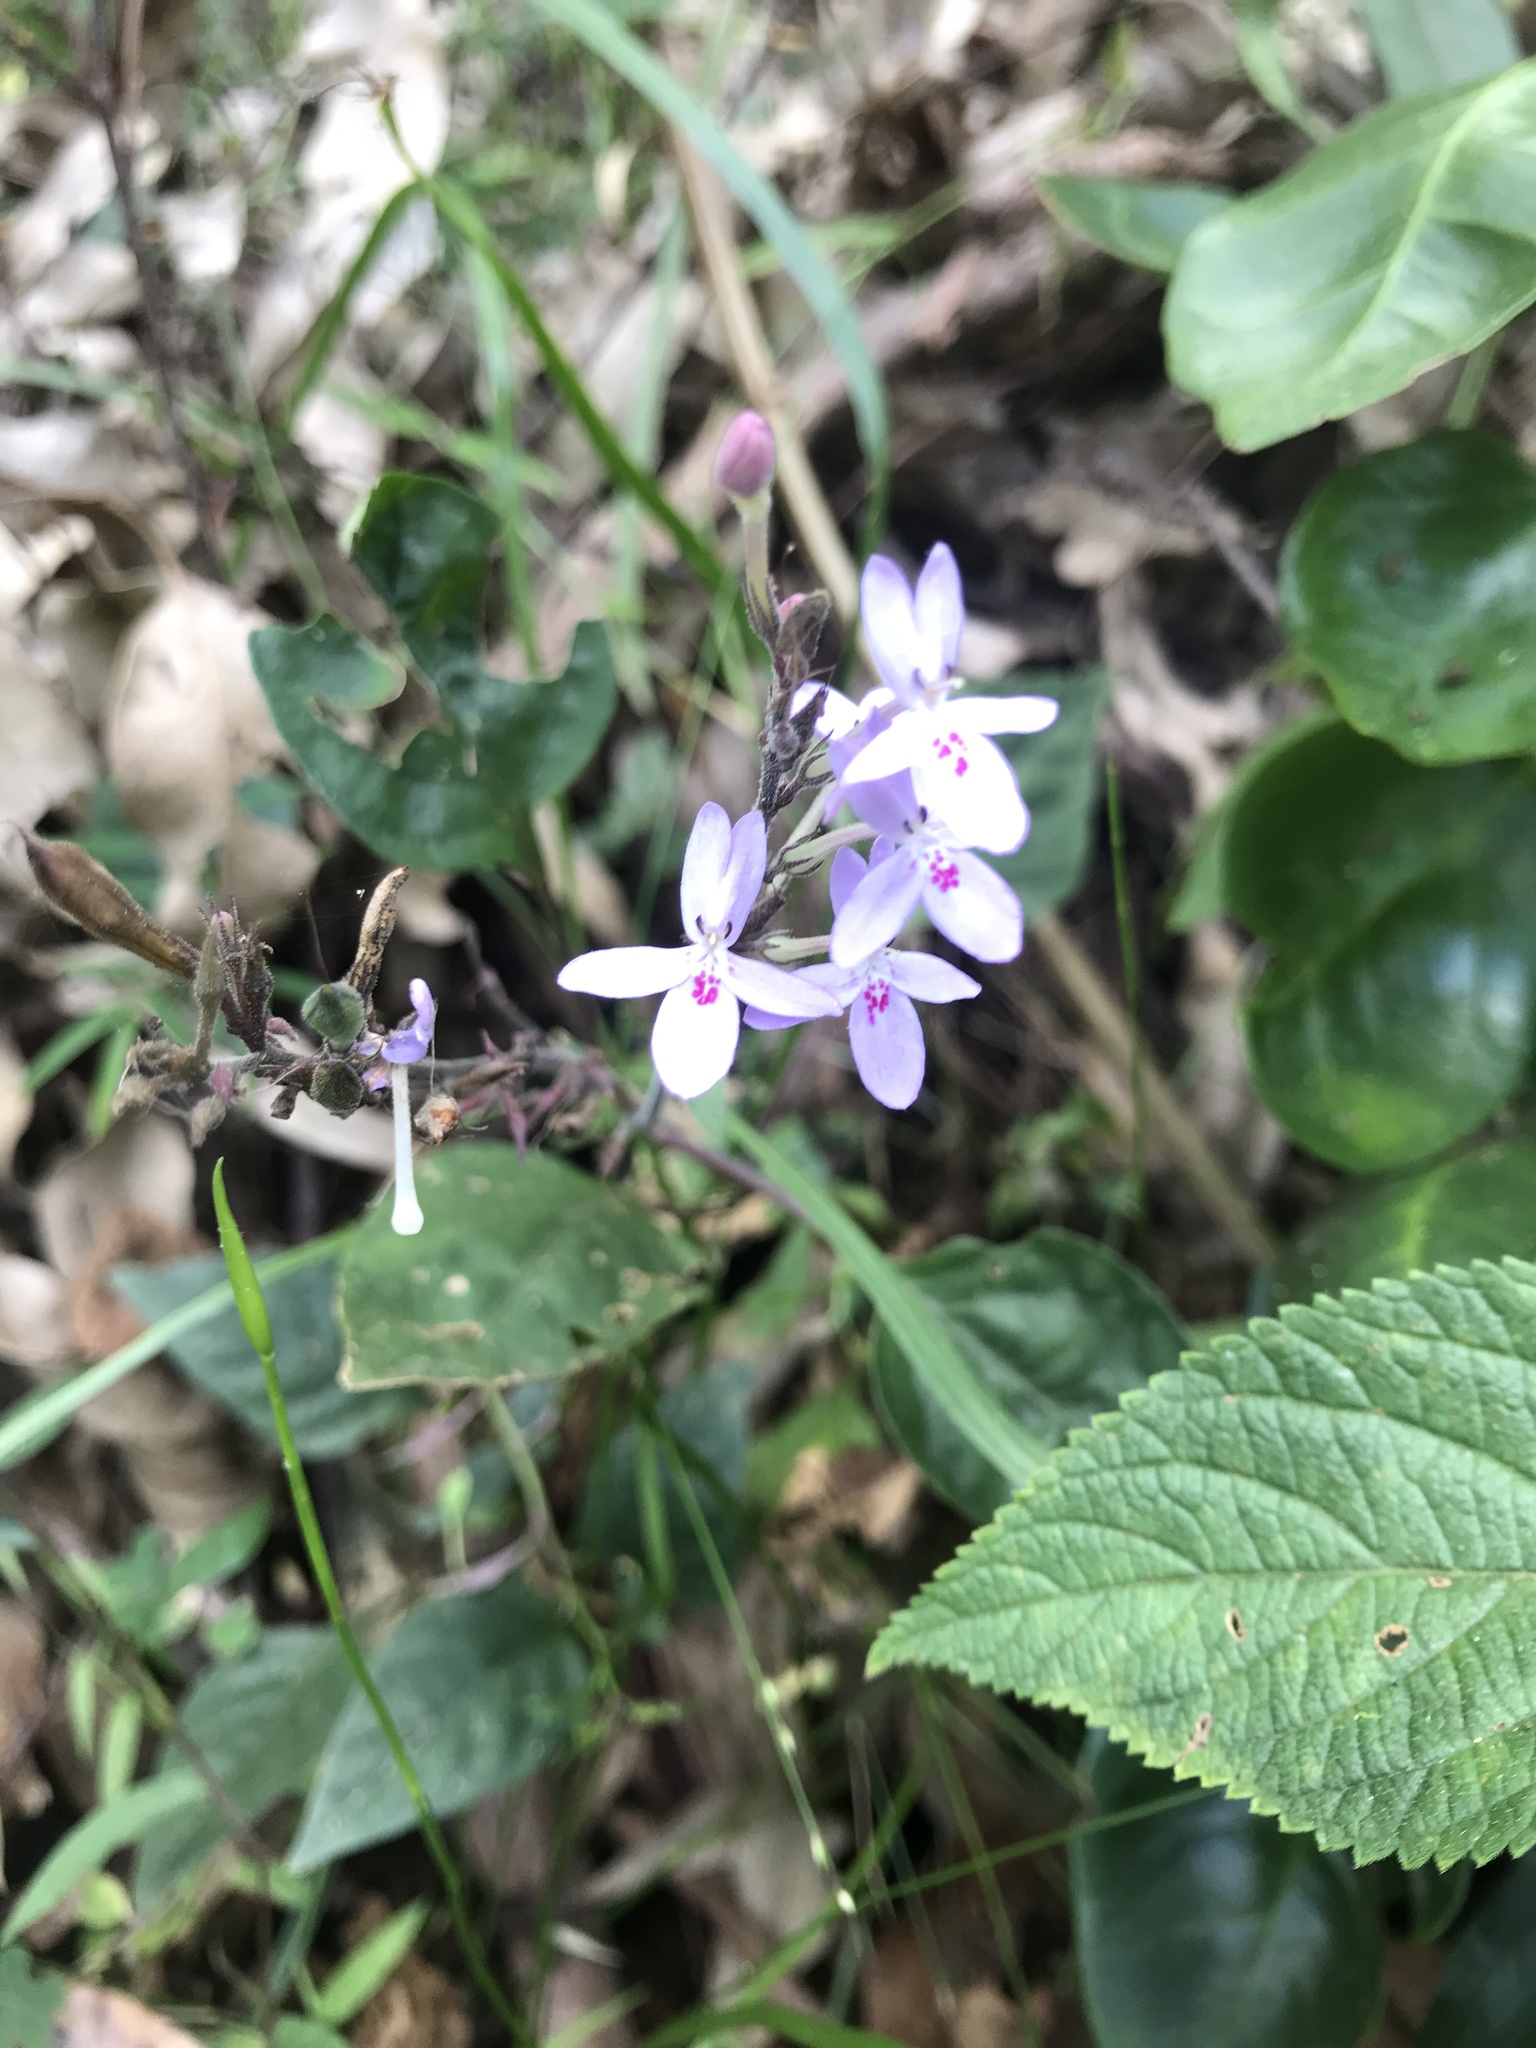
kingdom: Plantae
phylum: Tracheophyta
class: Magnoliopsida
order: Lamiales
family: Acanthaceae
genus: Pseuderanthemum
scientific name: Pseuderanthemum variabile
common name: Night and afternoon
